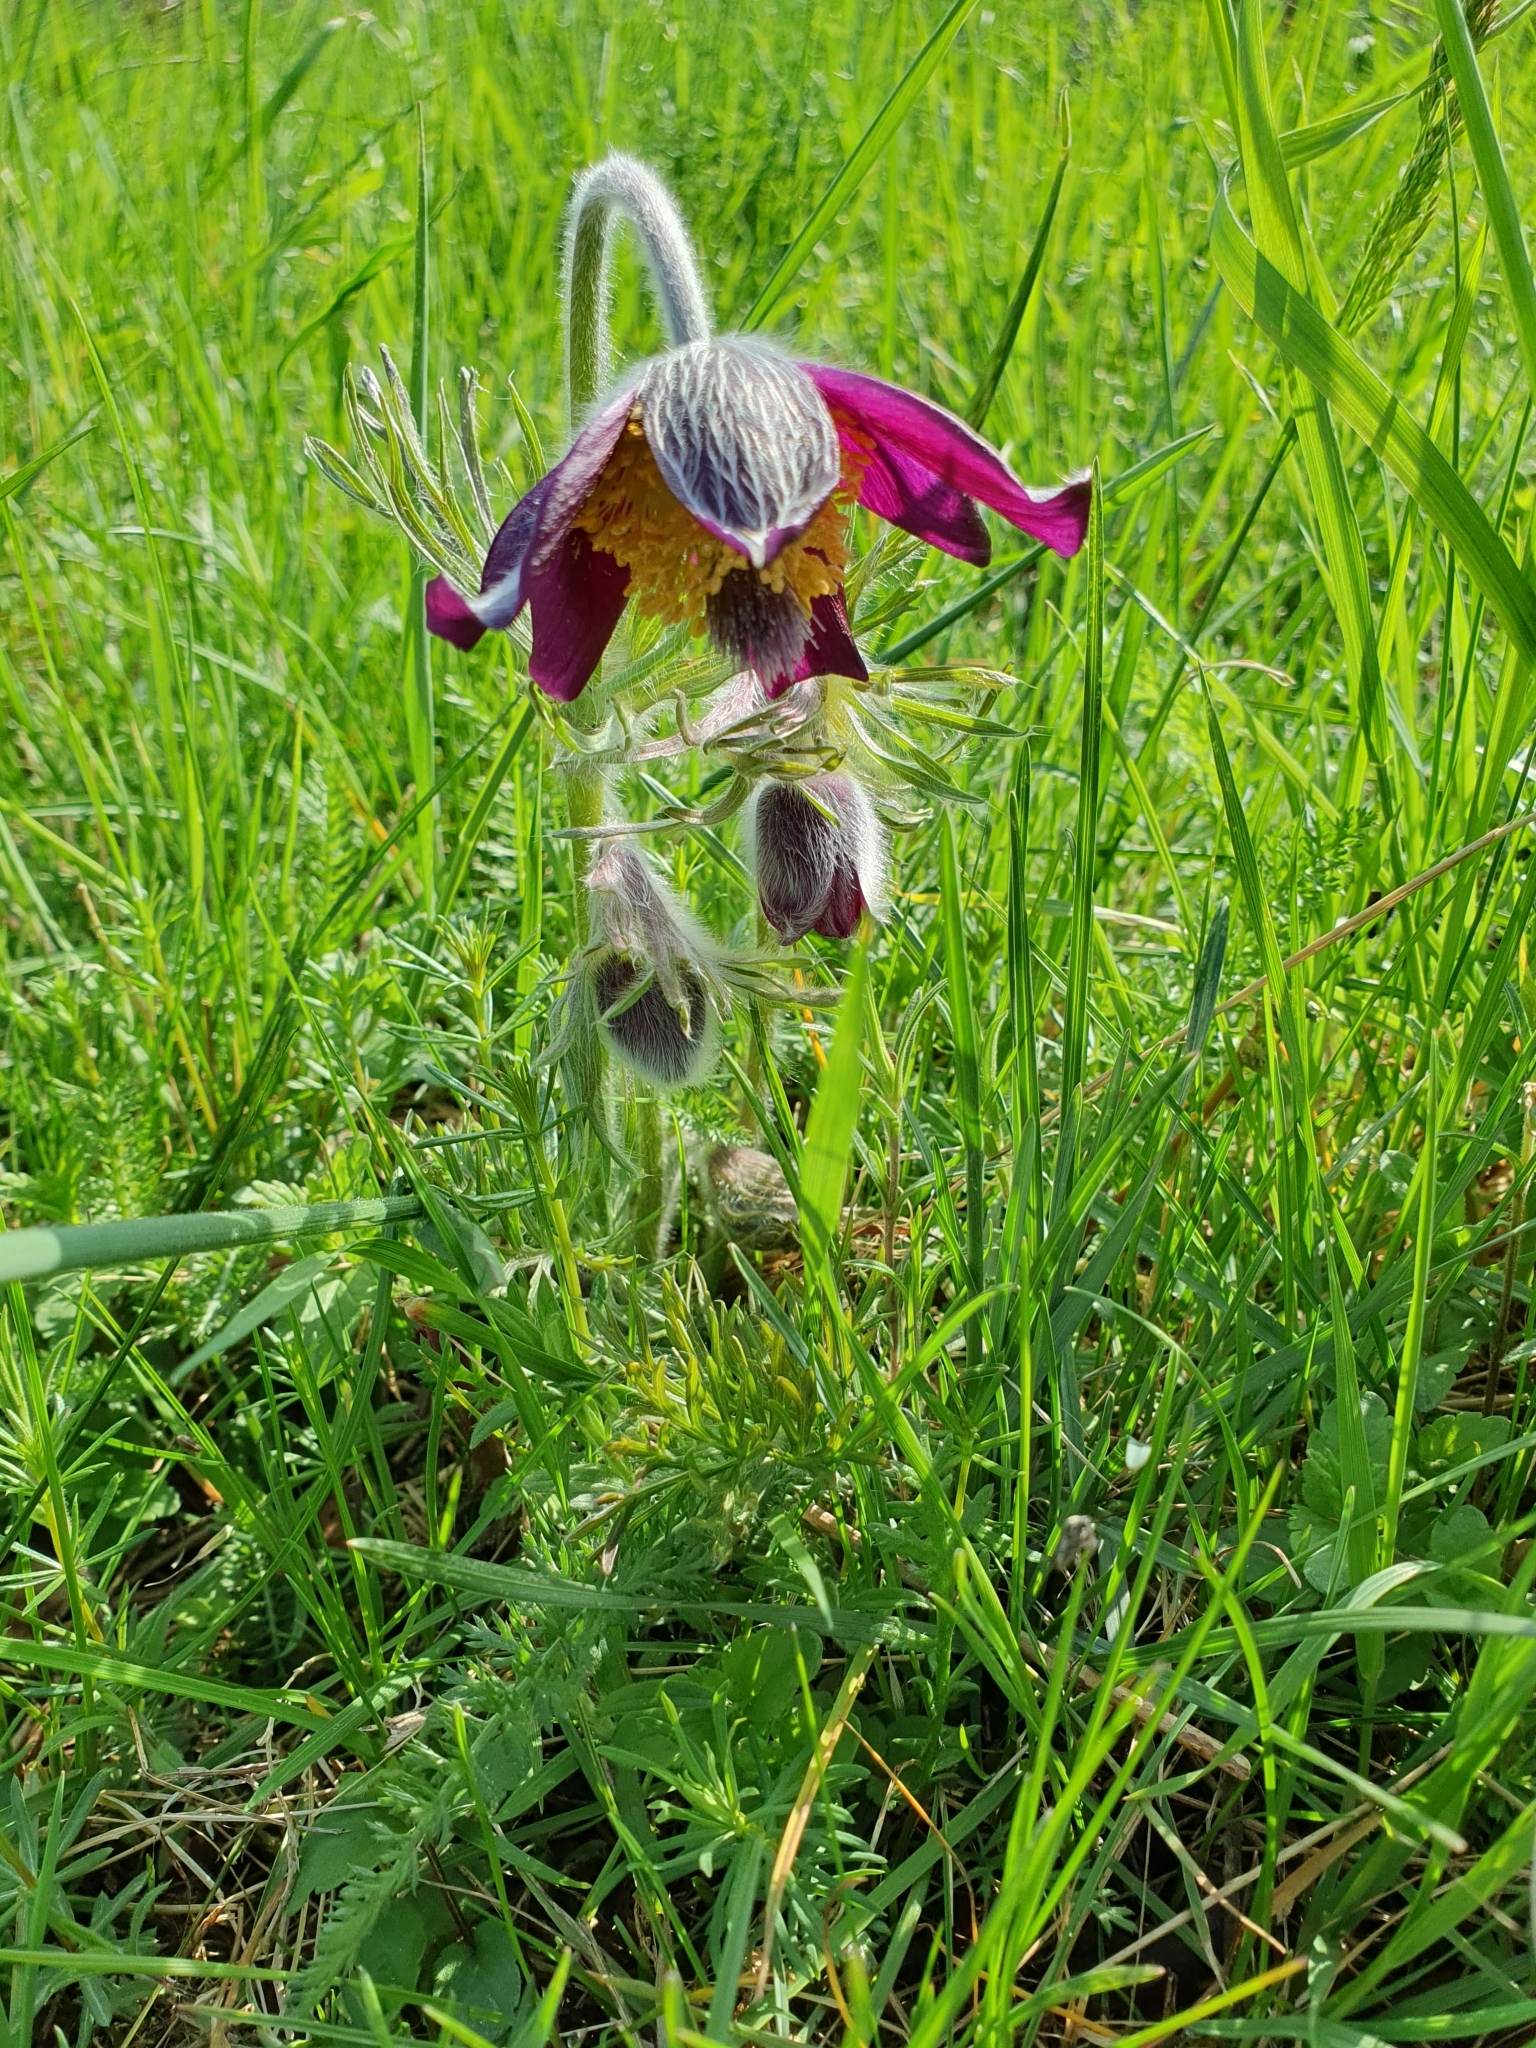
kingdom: Plantae
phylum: Tracheophyta
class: Magnoliopsida
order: Ranunculales
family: Ranunculaceae
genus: Pulsatilla
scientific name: Pulsatilla pratensis
